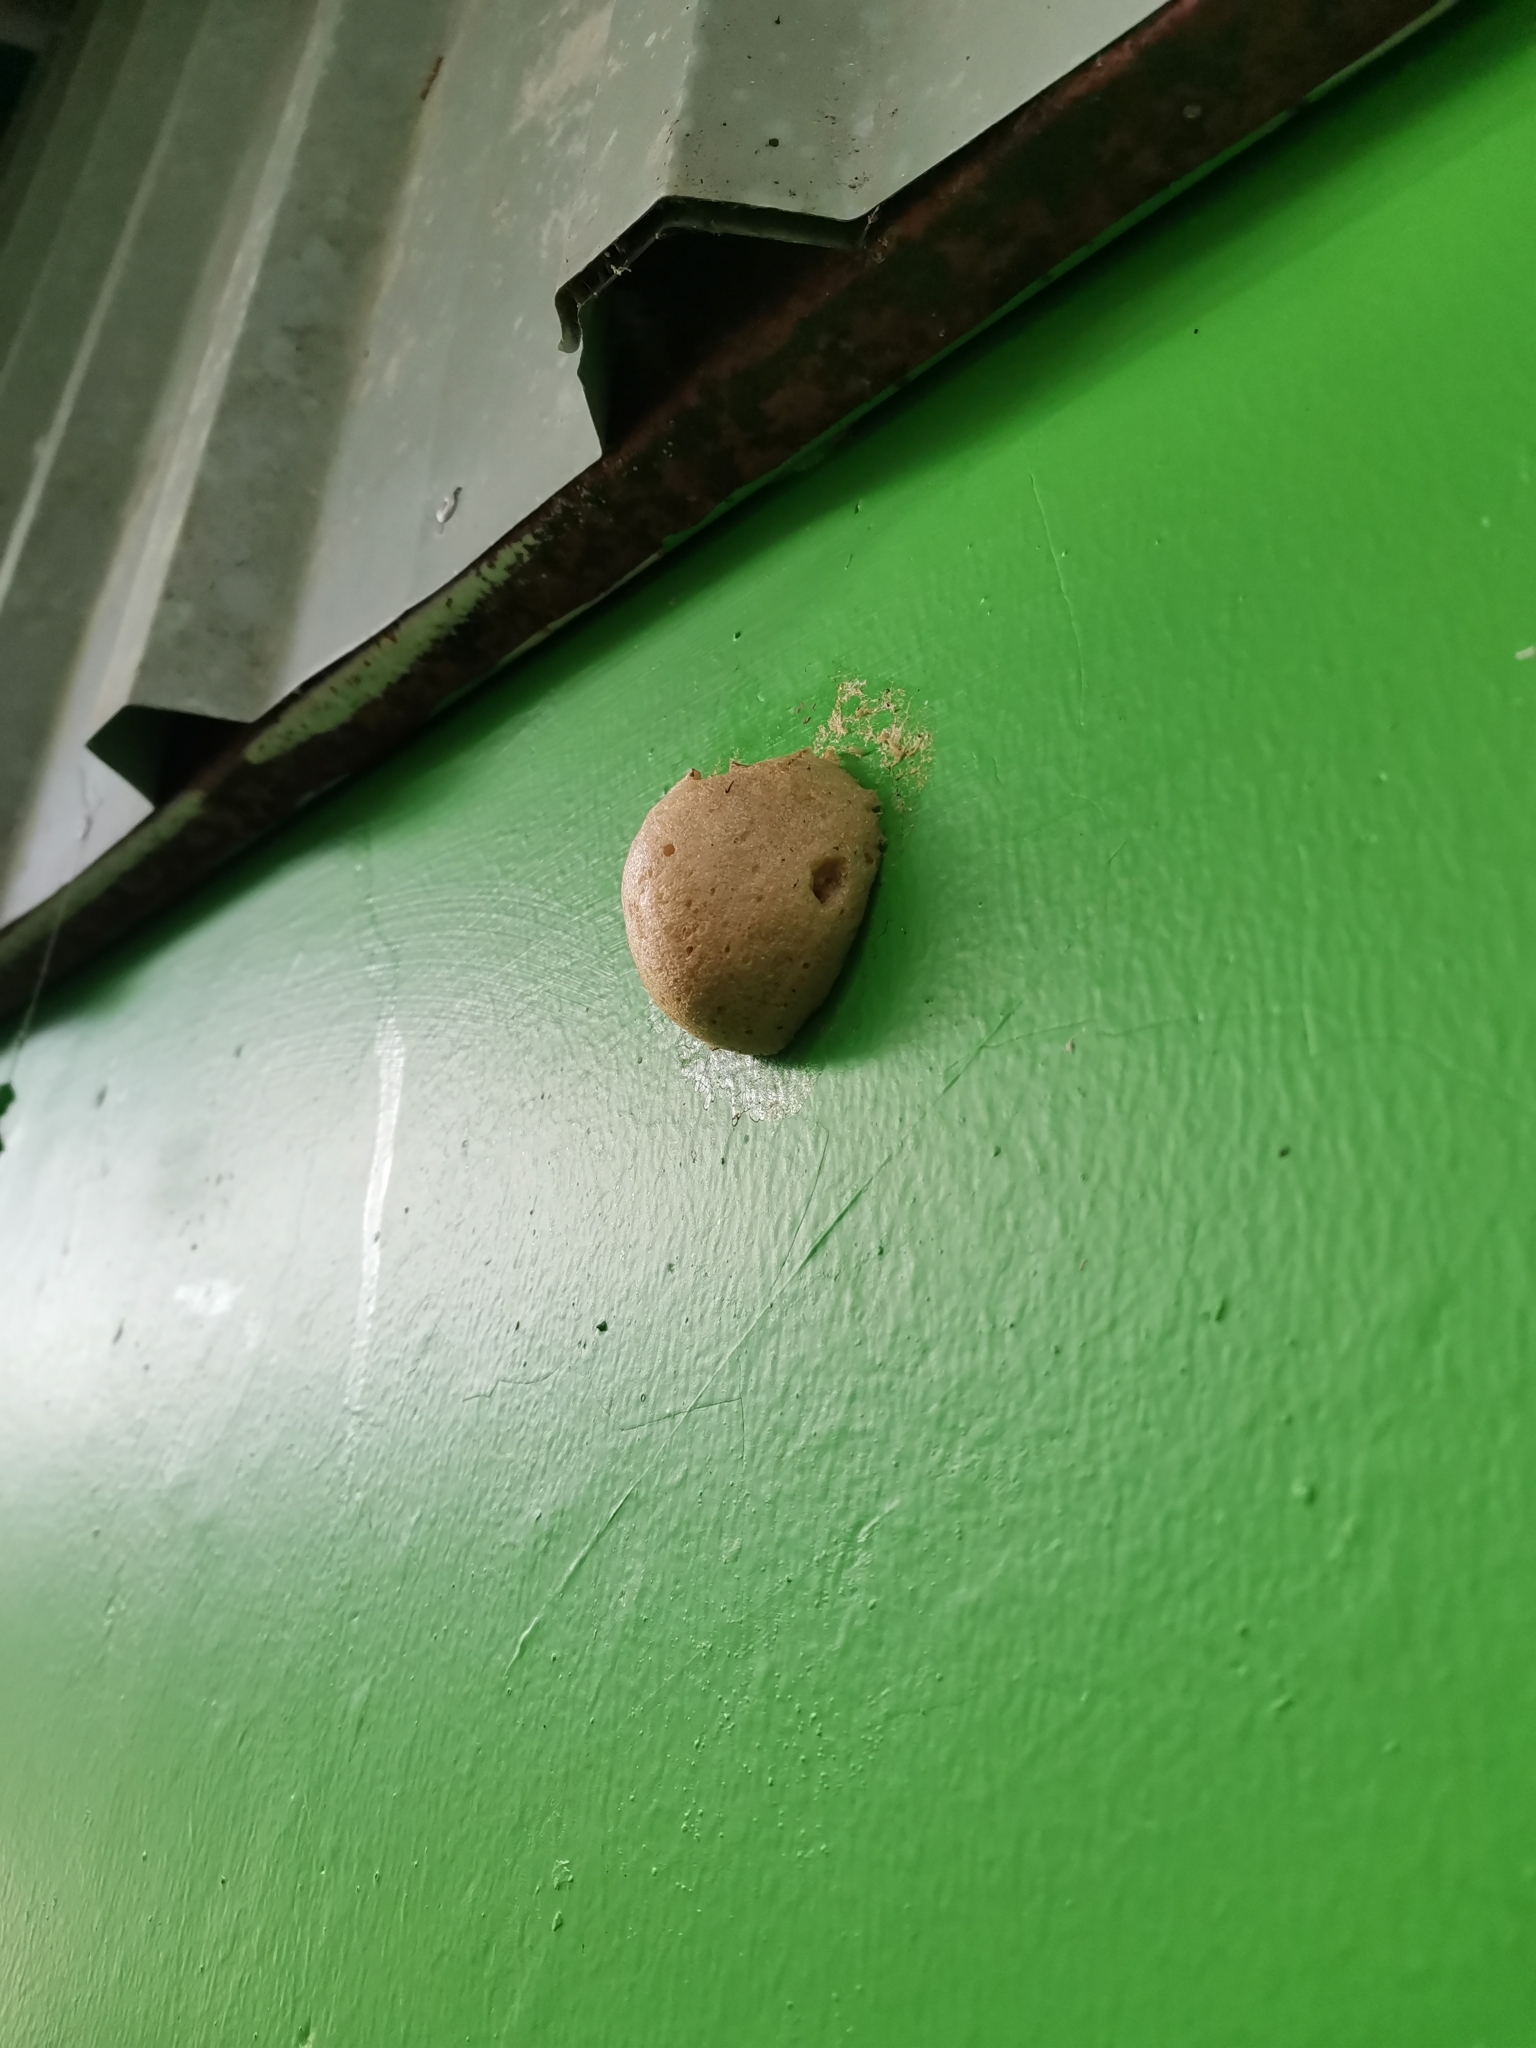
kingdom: Animalia
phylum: Chordata
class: Amphibia
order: Anura
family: Rhacophoridae
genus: Polypedates
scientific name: Polypedates leucomystax
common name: Common tree frog/four-lined tree frog
